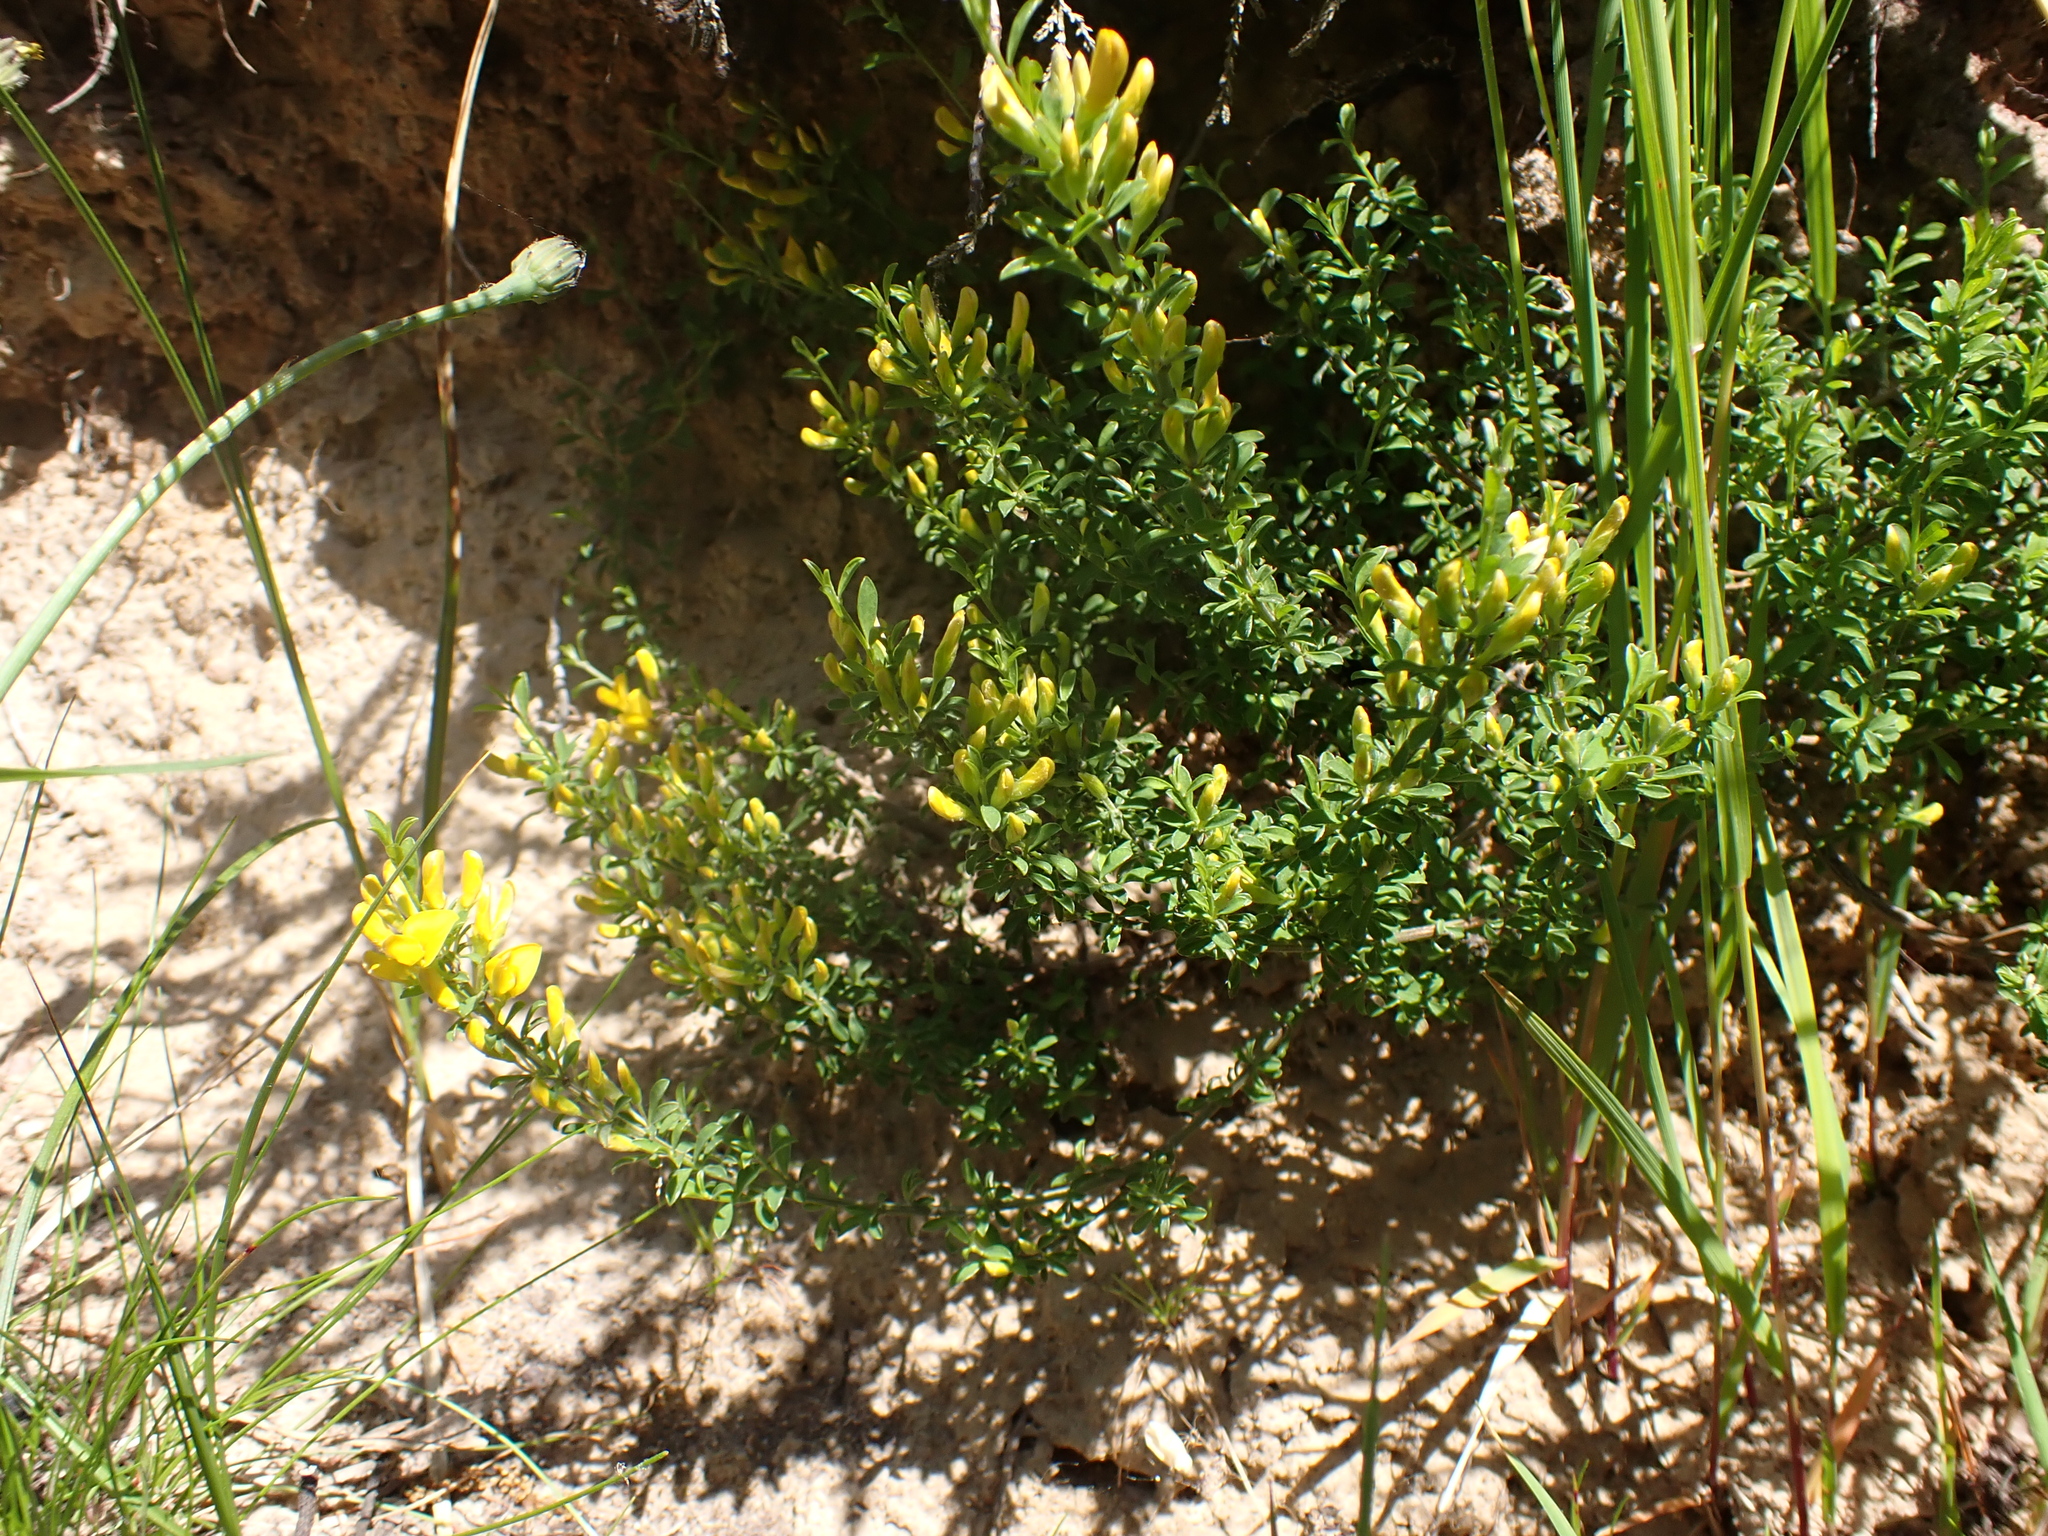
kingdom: Plantae
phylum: Tracheophyta
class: Magnoliopsida
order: Fabales
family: Fabaceae
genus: Genista
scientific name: Genista pilosa
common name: Hairy greenweed
